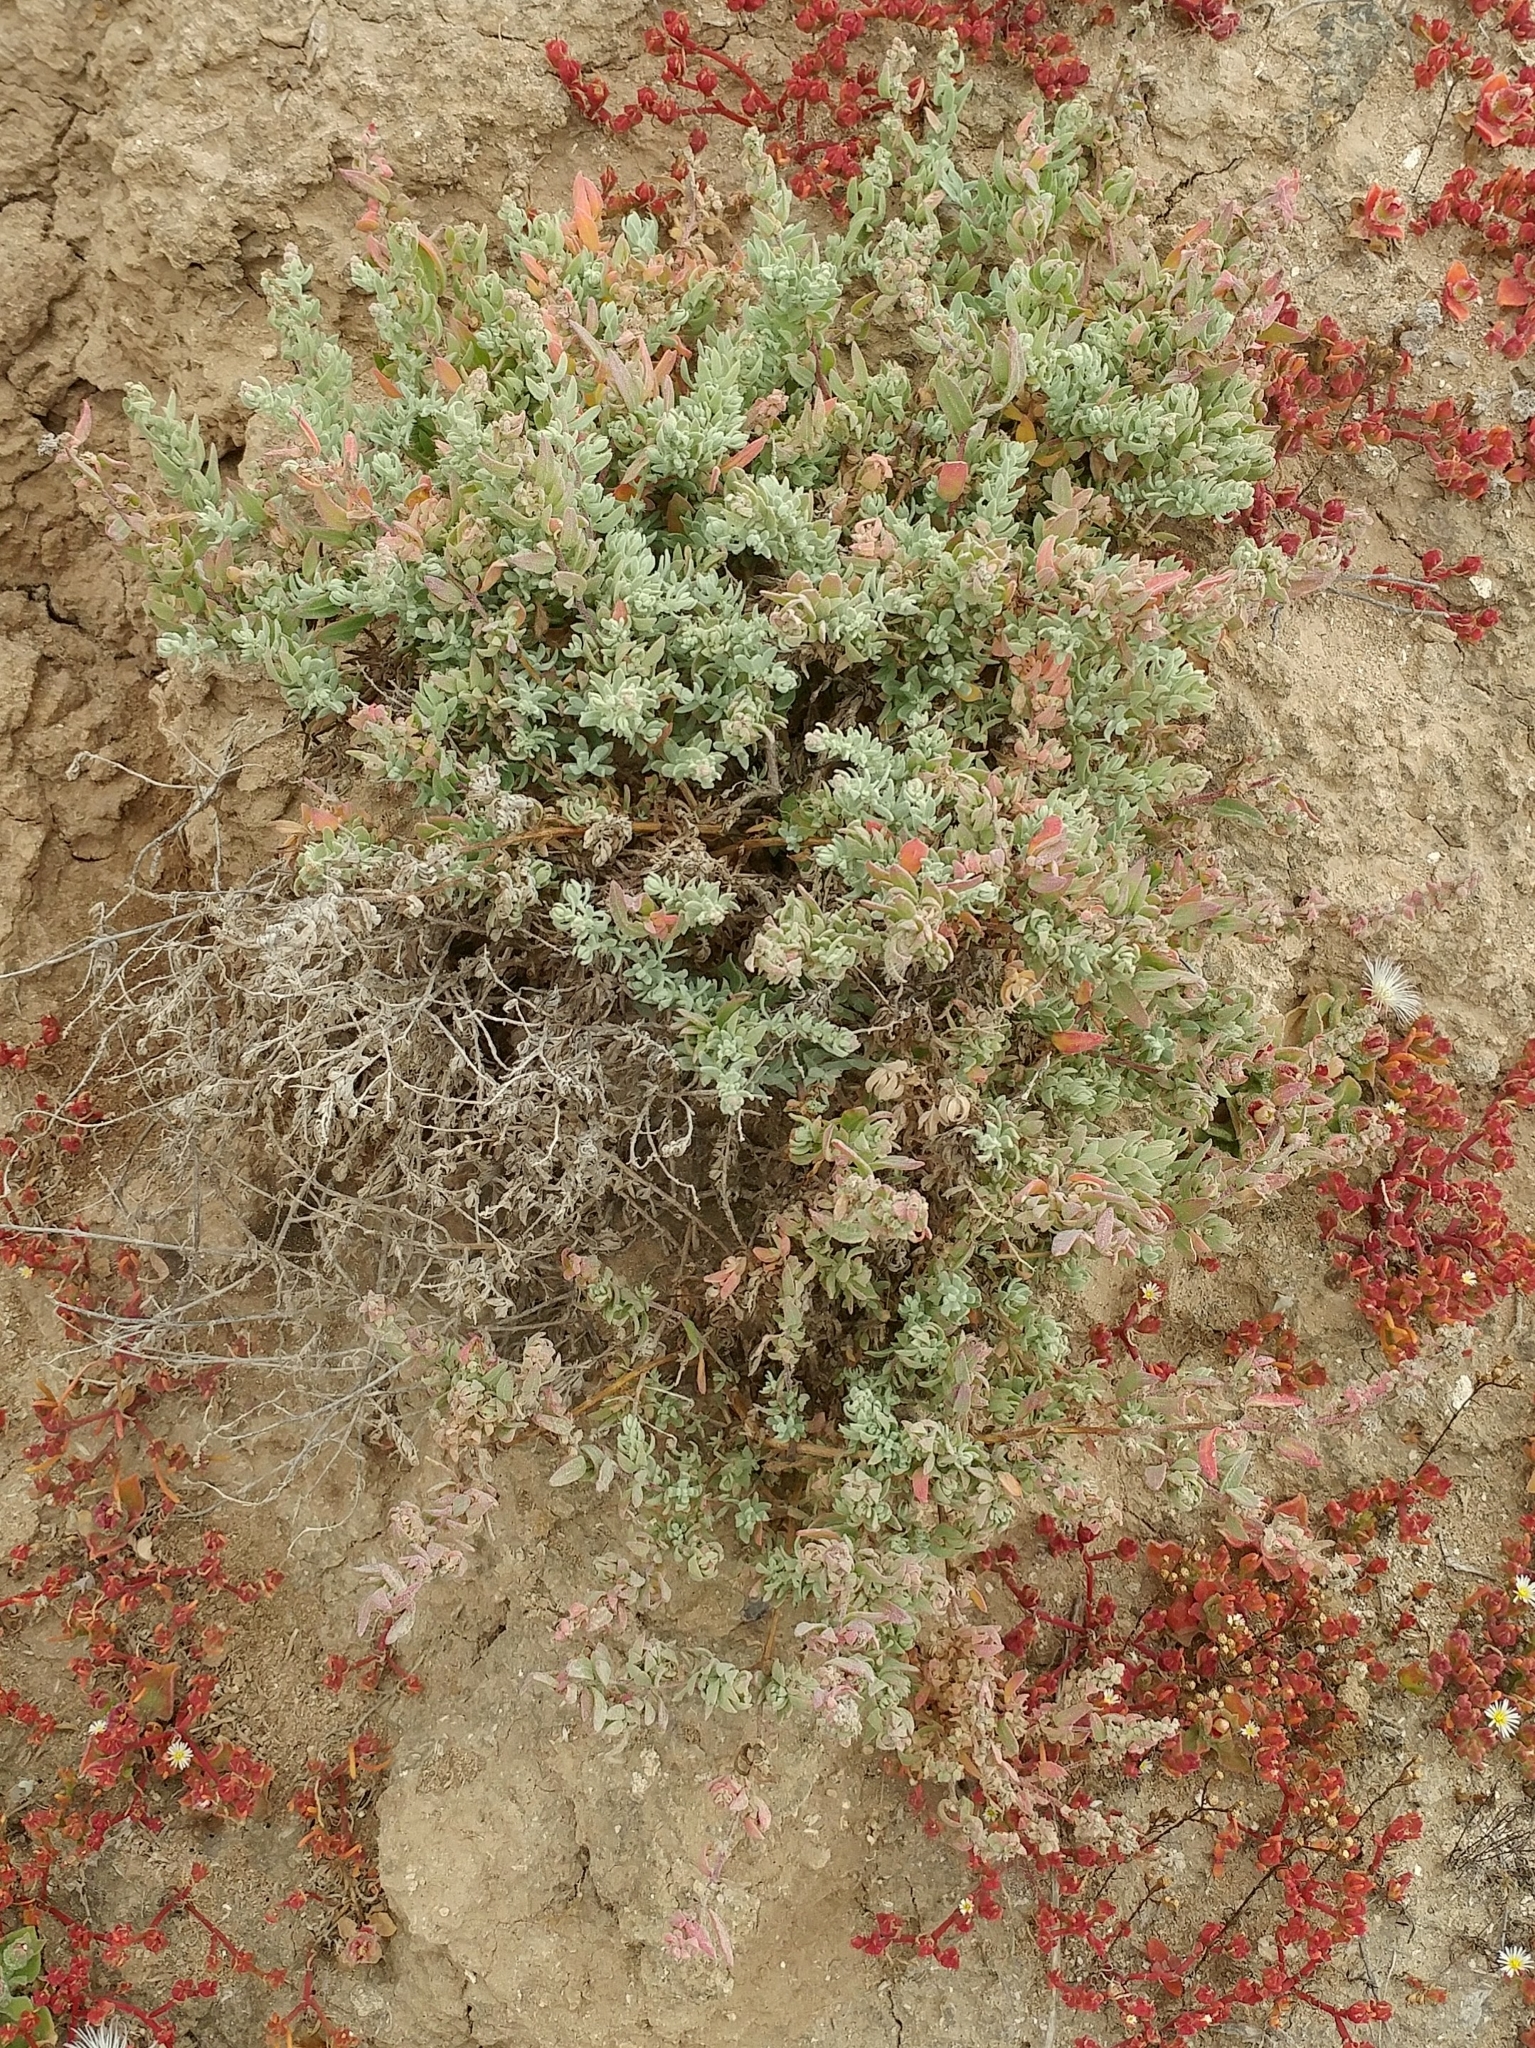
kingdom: Plantae
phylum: Tracheophyta
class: Magnoliopsida
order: Caryophyllales
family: Amaranthaceae
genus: Extriplex
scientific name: Extriplex californica
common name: California saltbush
